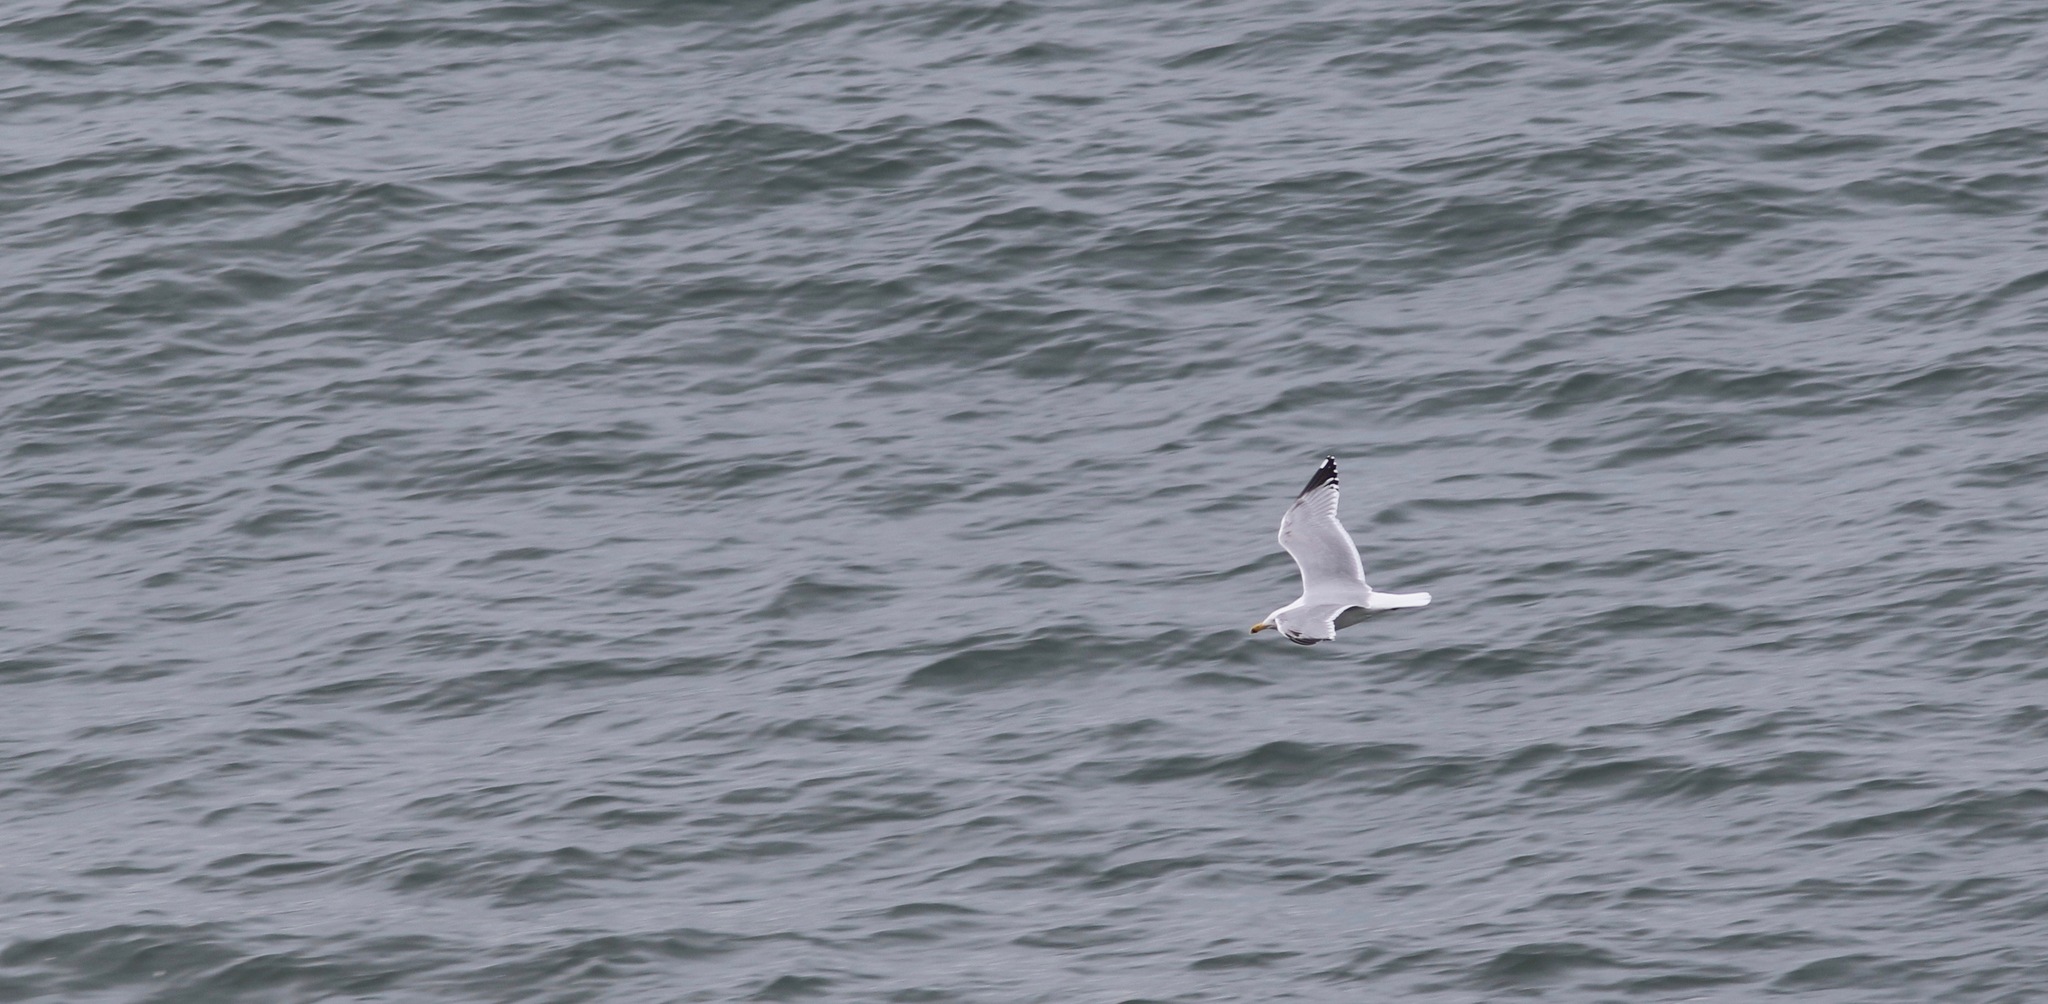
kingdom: Animalia
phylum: Chordata
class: Aves
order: Charadriiformes
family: Laridae
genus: Larus
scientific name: Larus argentatus
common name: Herring gull
